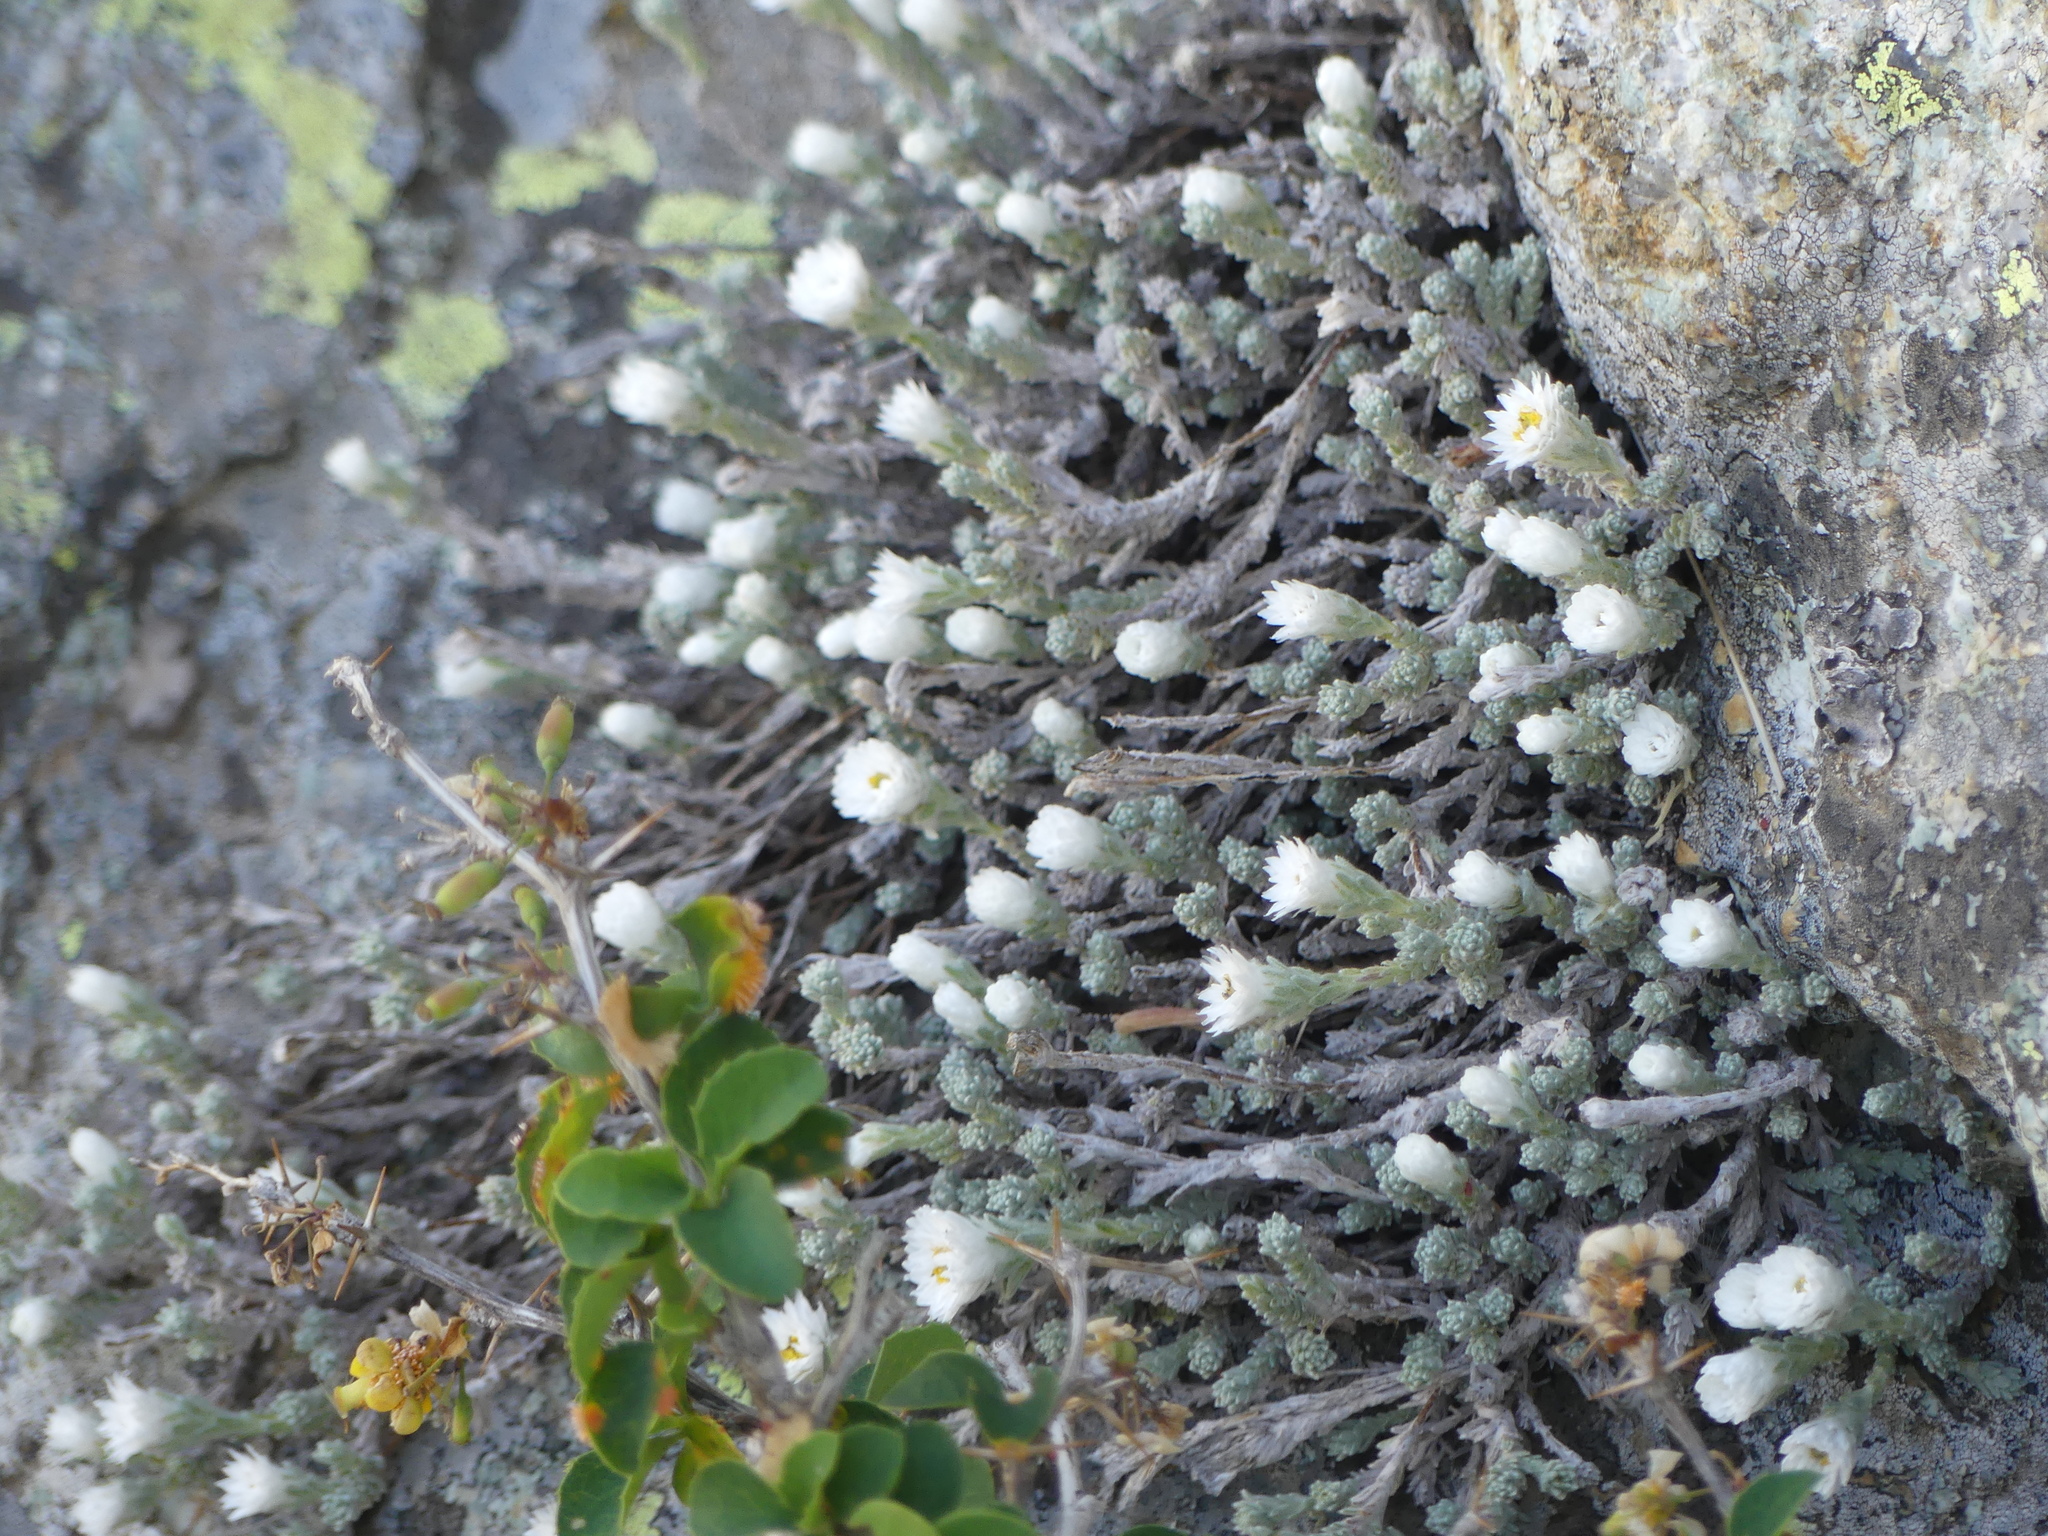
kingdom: Plantae
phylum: Tracheophyta
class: Magnoliopsida
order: Asterales
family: Asteraceae
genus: Castroviejoa
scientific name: Castroviejoa frigida
